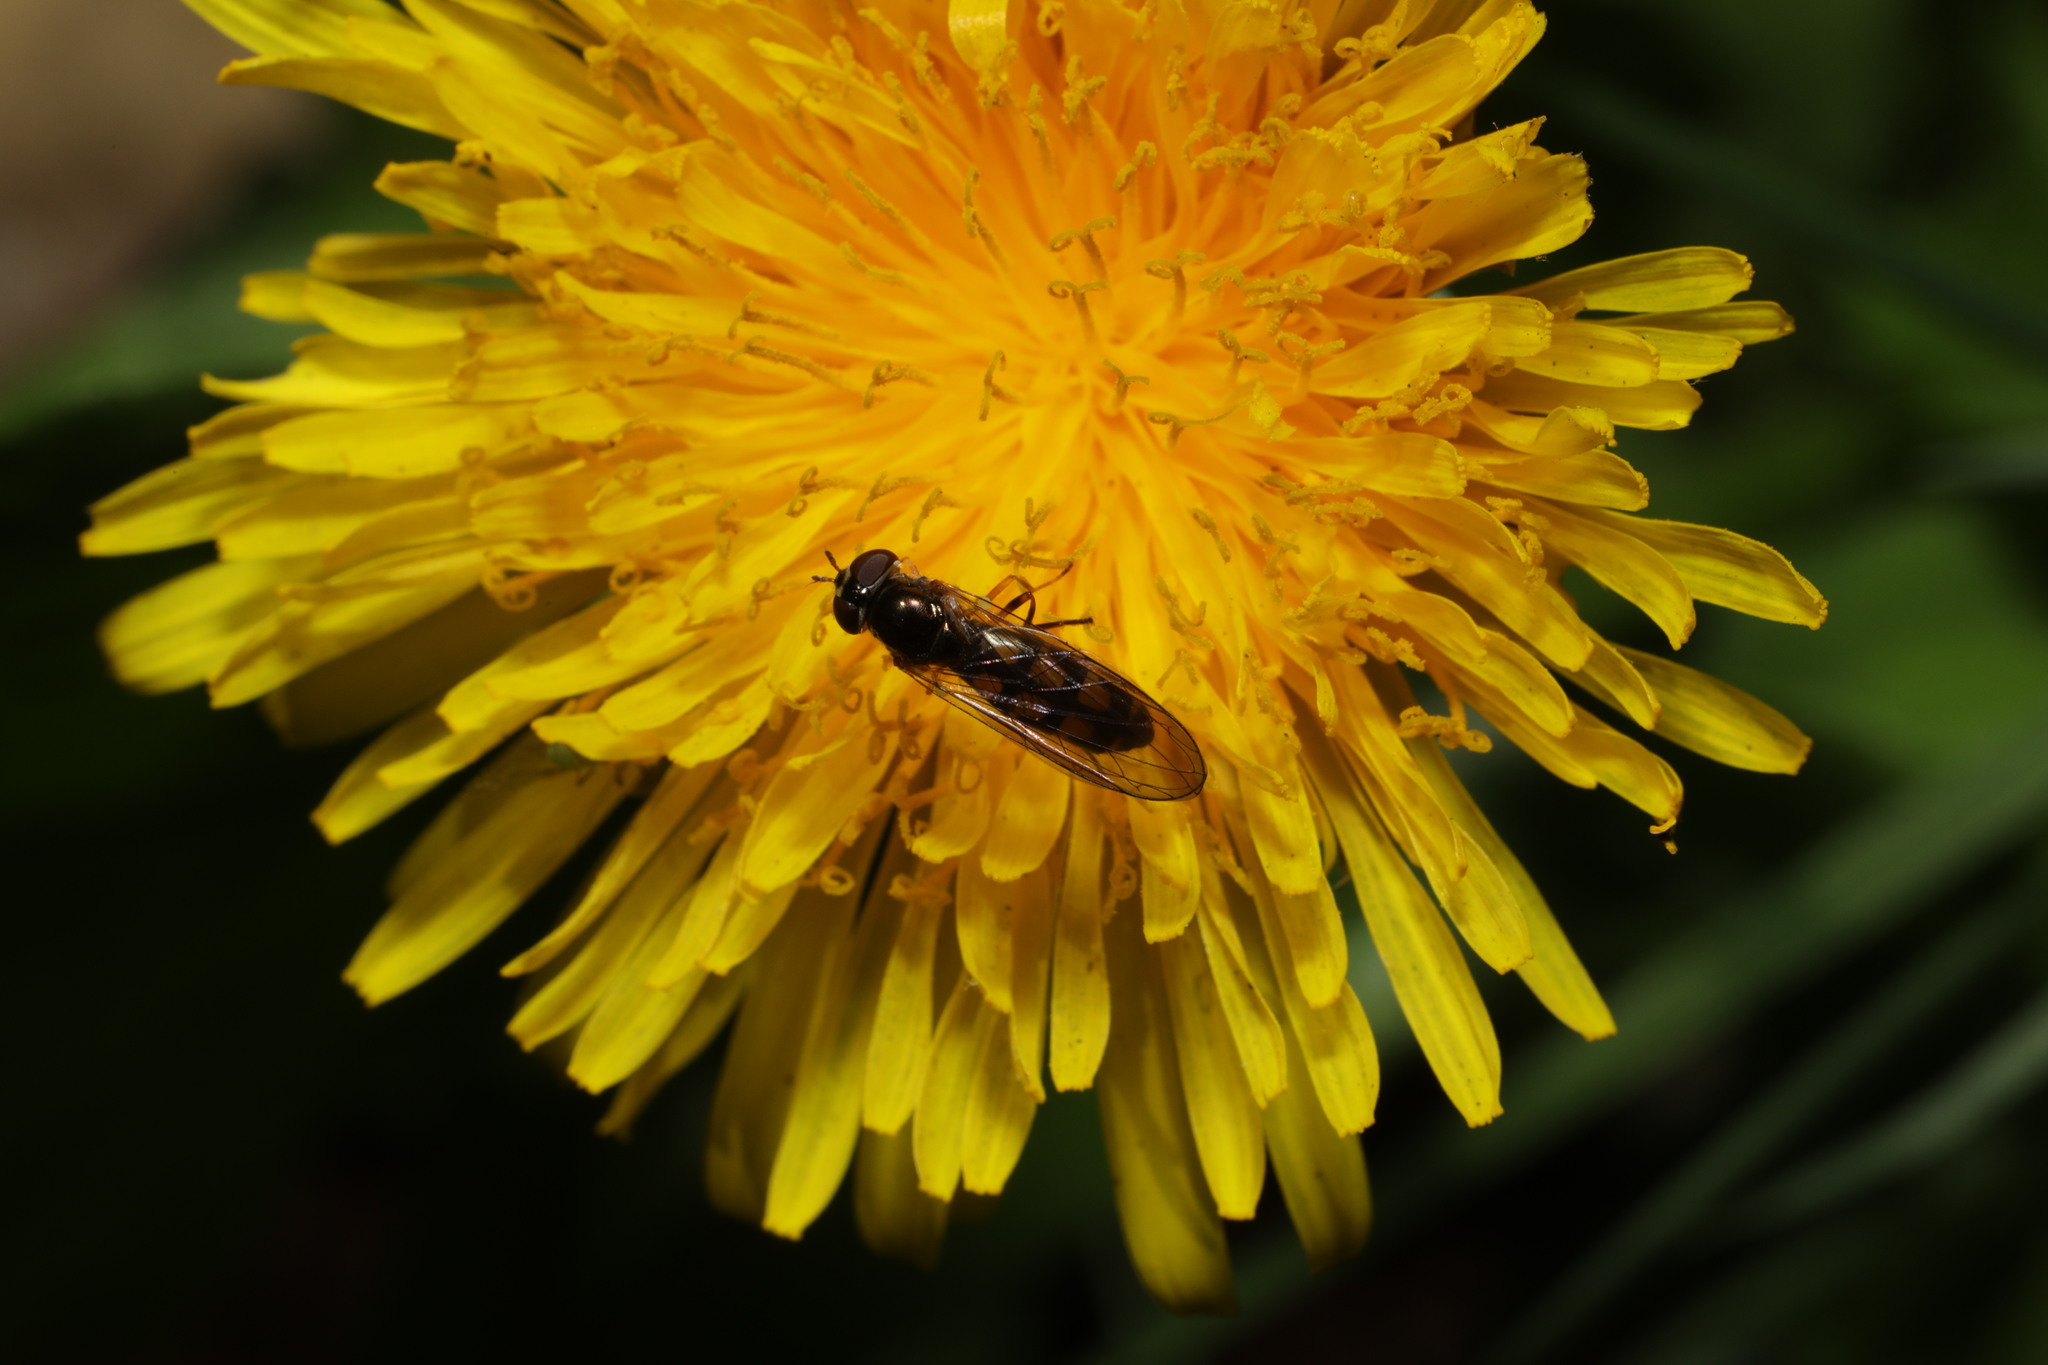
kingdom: Animalia
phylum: Arthropoda
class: Insecta
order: Diptera
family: Syrphidae
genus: Melanostoma
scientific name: Melanostoma scalare
